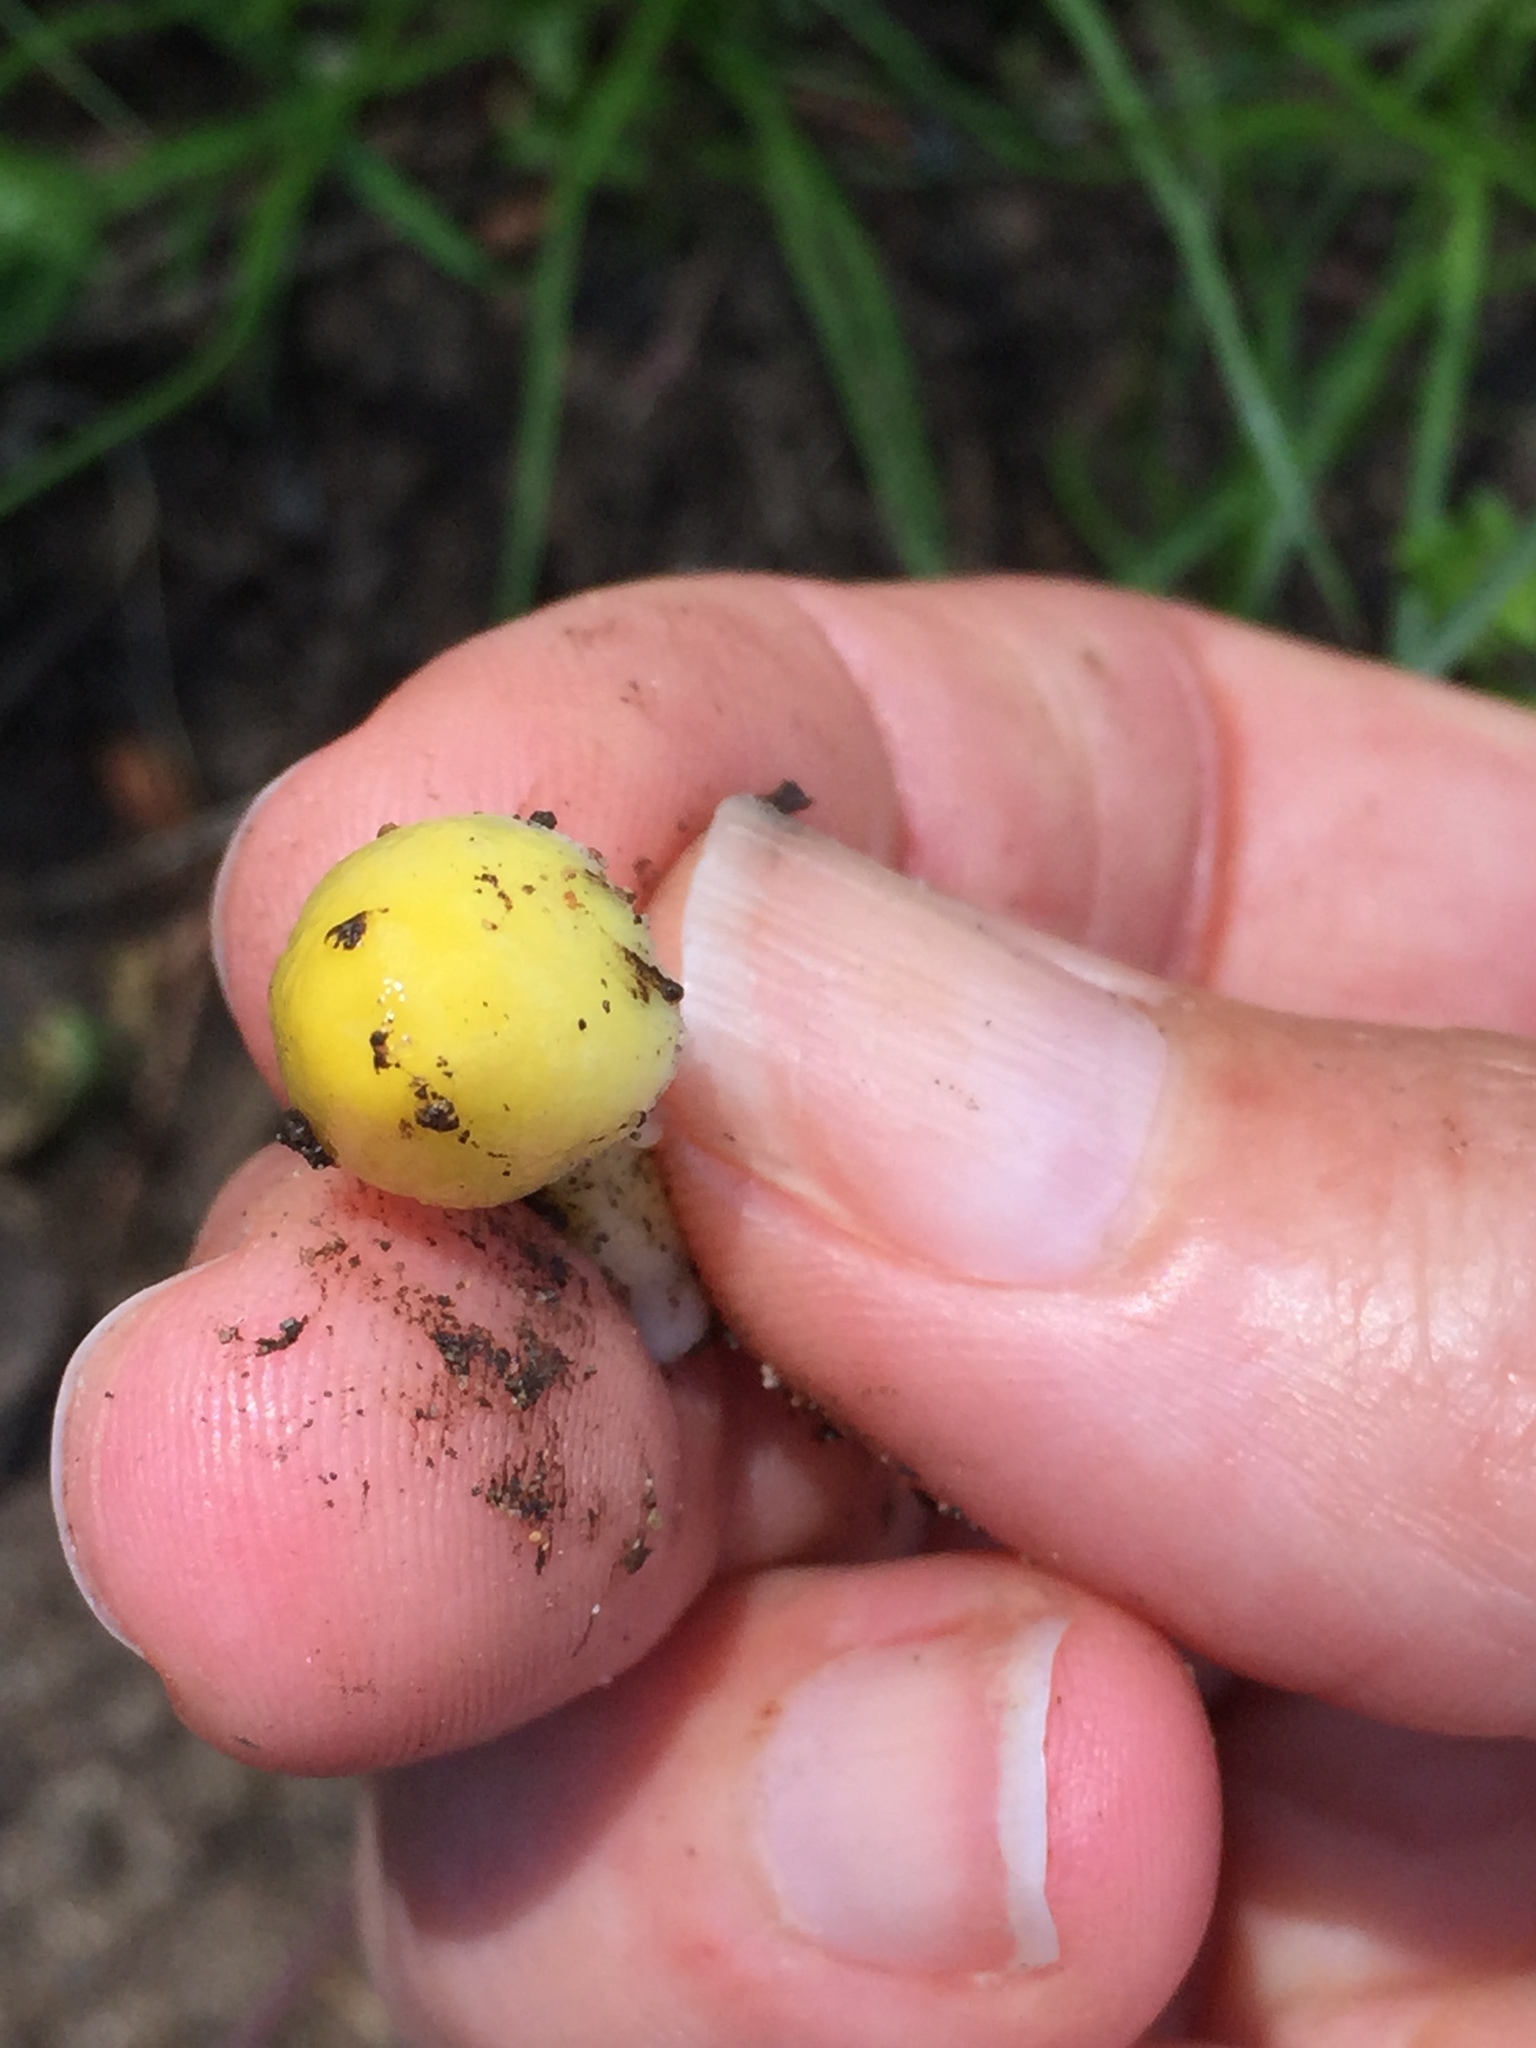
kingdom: Fungi
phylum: Basidiomycota
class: Agaricomycetes
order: Agaricales
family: Bolbitiaceae
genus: Bolbitius
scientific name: Bolbitius titubans
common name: Yellow fieldcap
